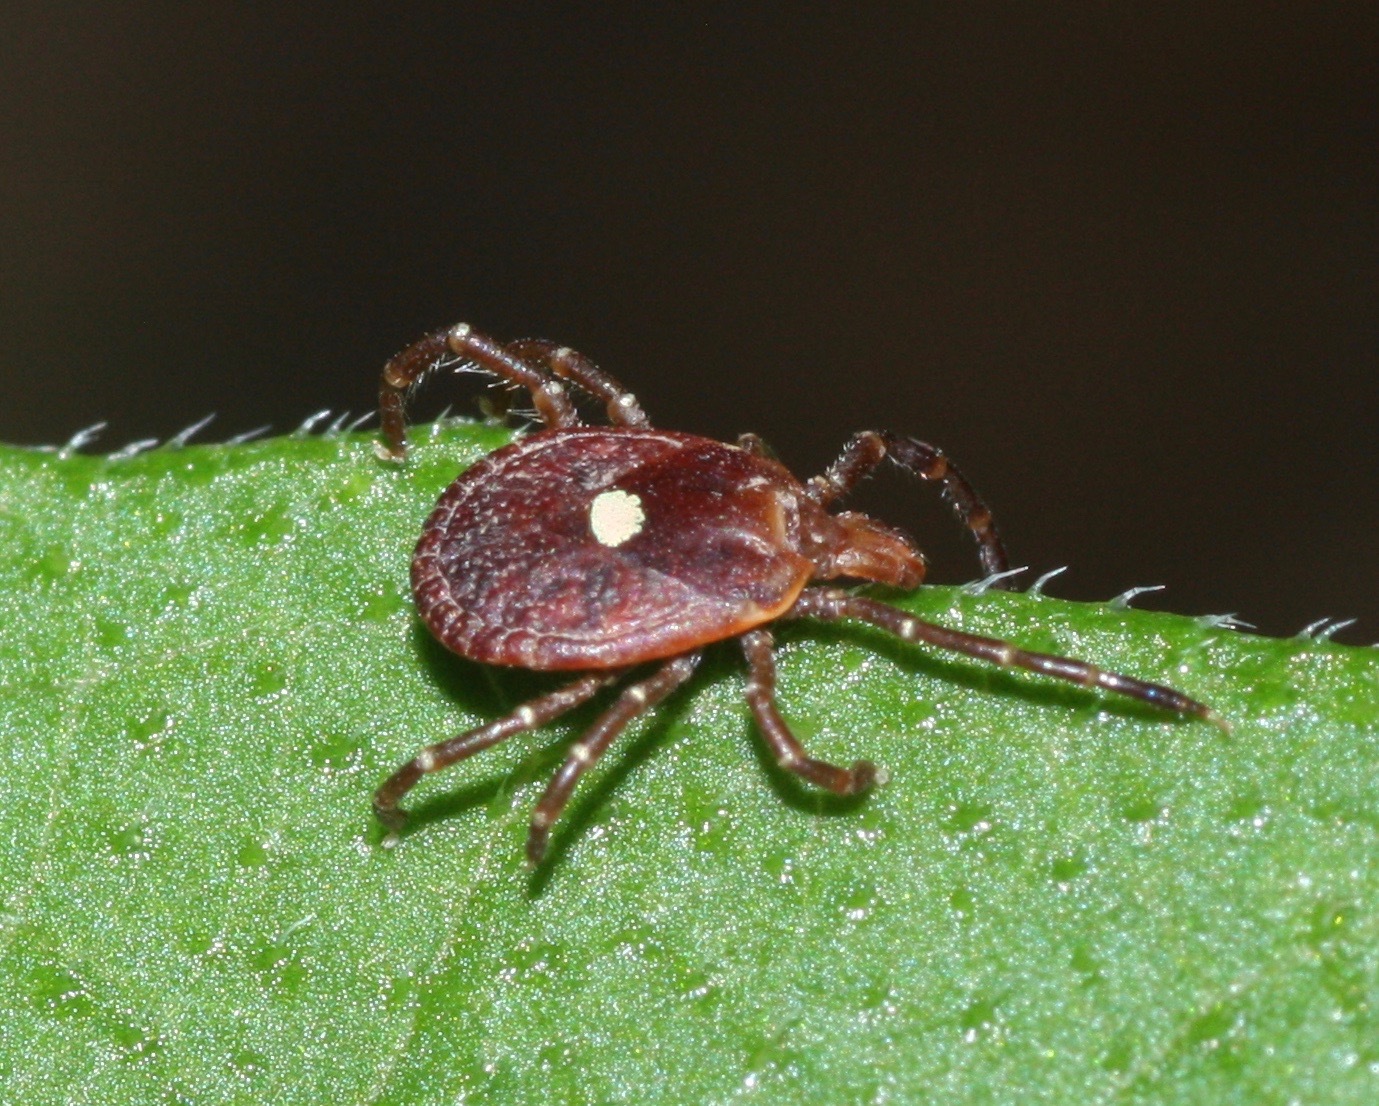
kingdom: Animalia
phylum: Arthropoda
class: Arachnida
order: Ixodida
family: Ixodidae
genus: Amblyomma
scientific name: Amblyomma americanum
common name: Lone star tick
